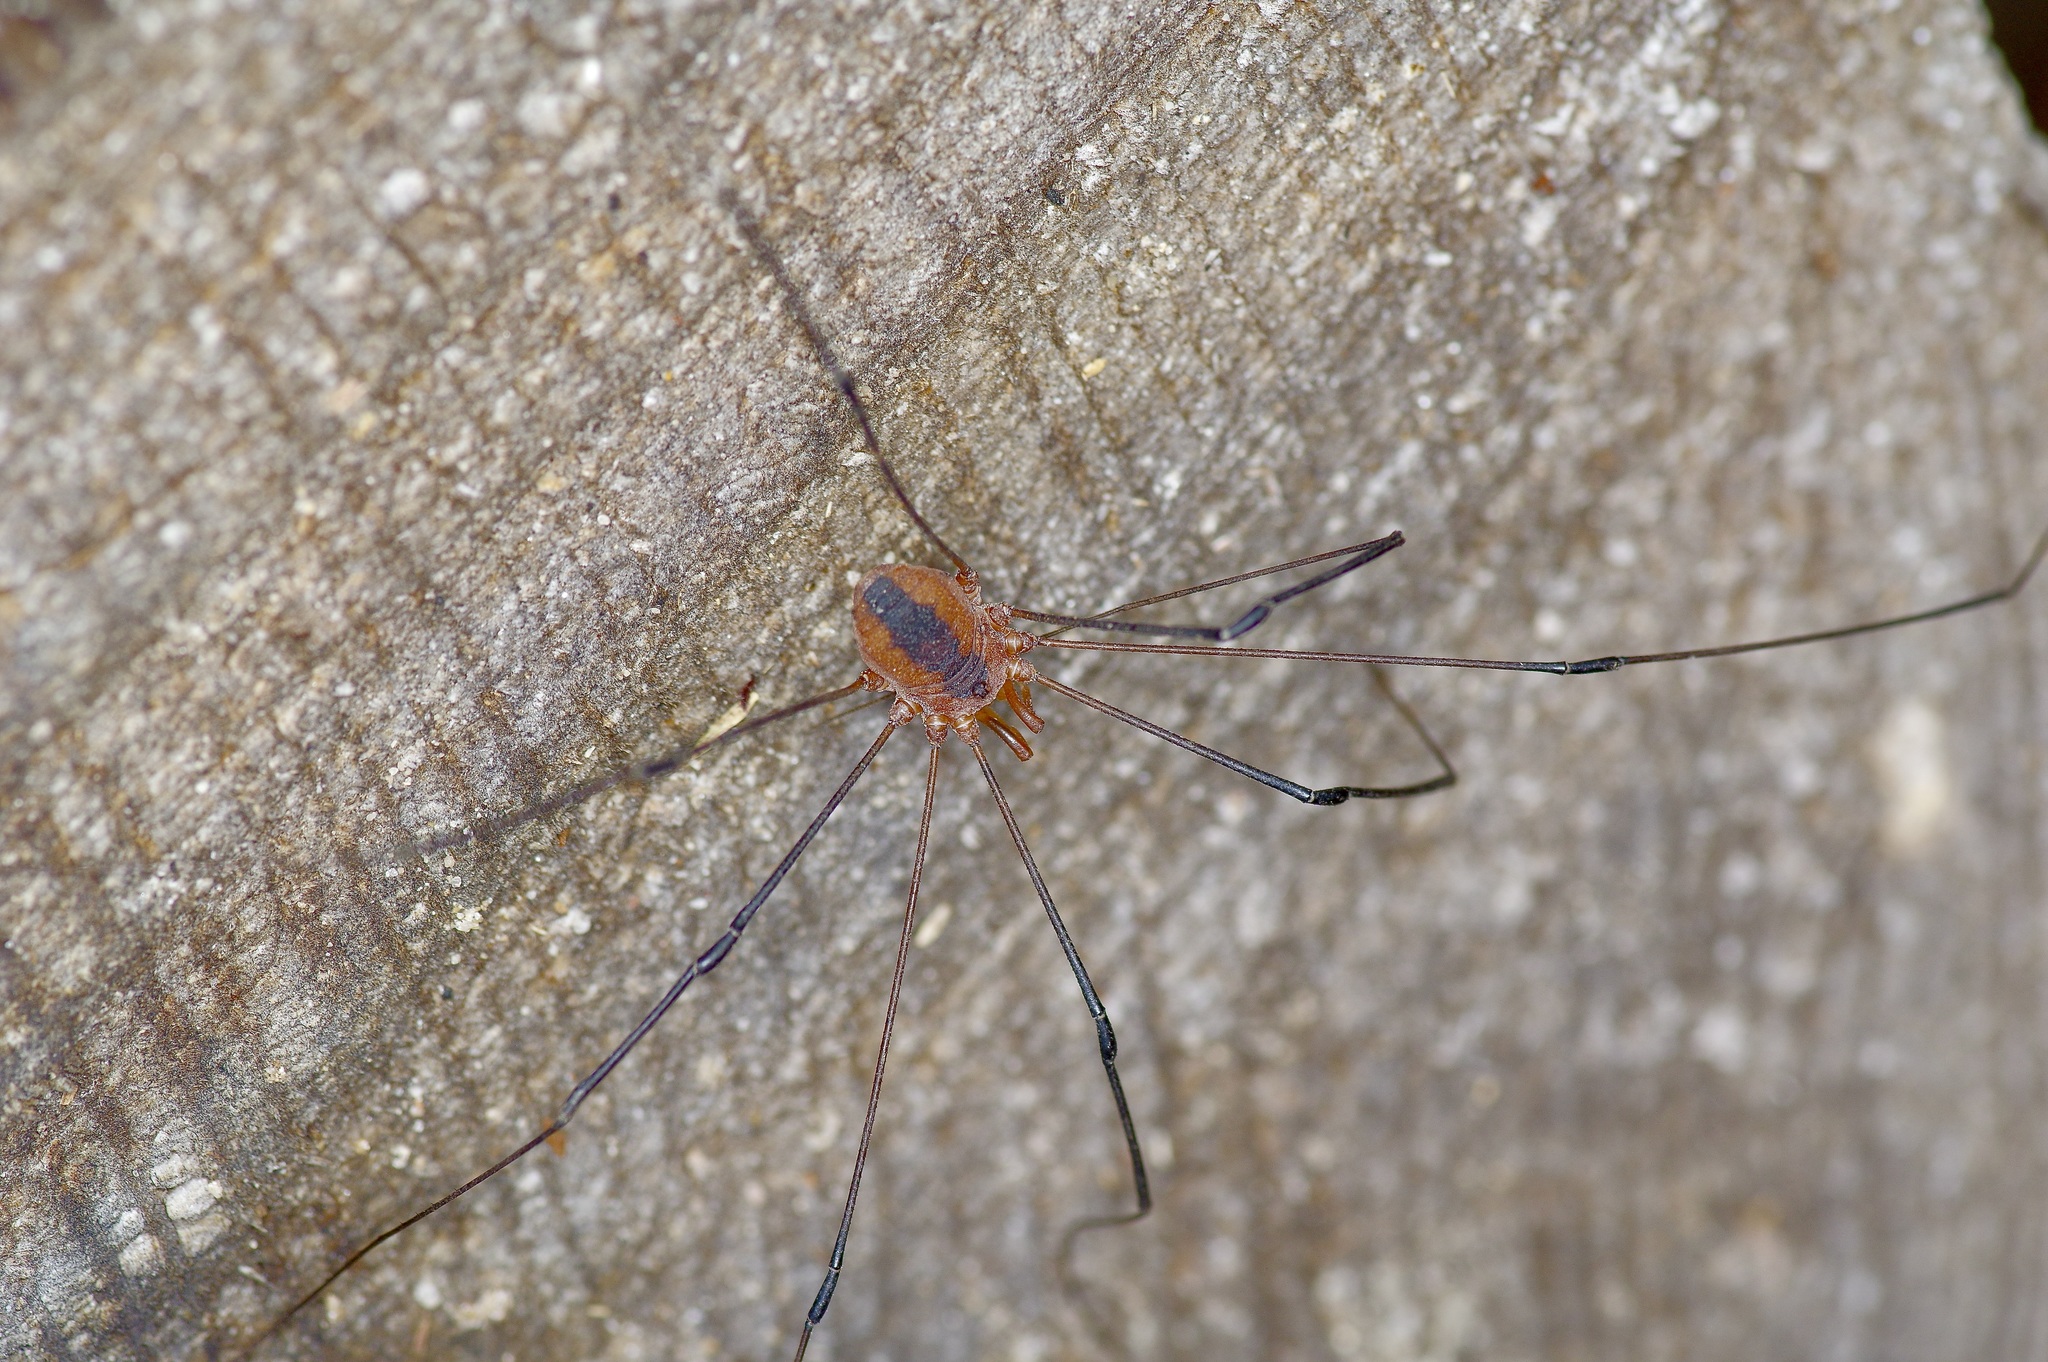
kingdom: Animalia
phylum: Arthropoda
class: Arachnida
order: Opiliones
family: Sclerosomatidae
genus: Leiobunum
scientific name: Leiobunum vittatum
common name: Eastern harvestman
